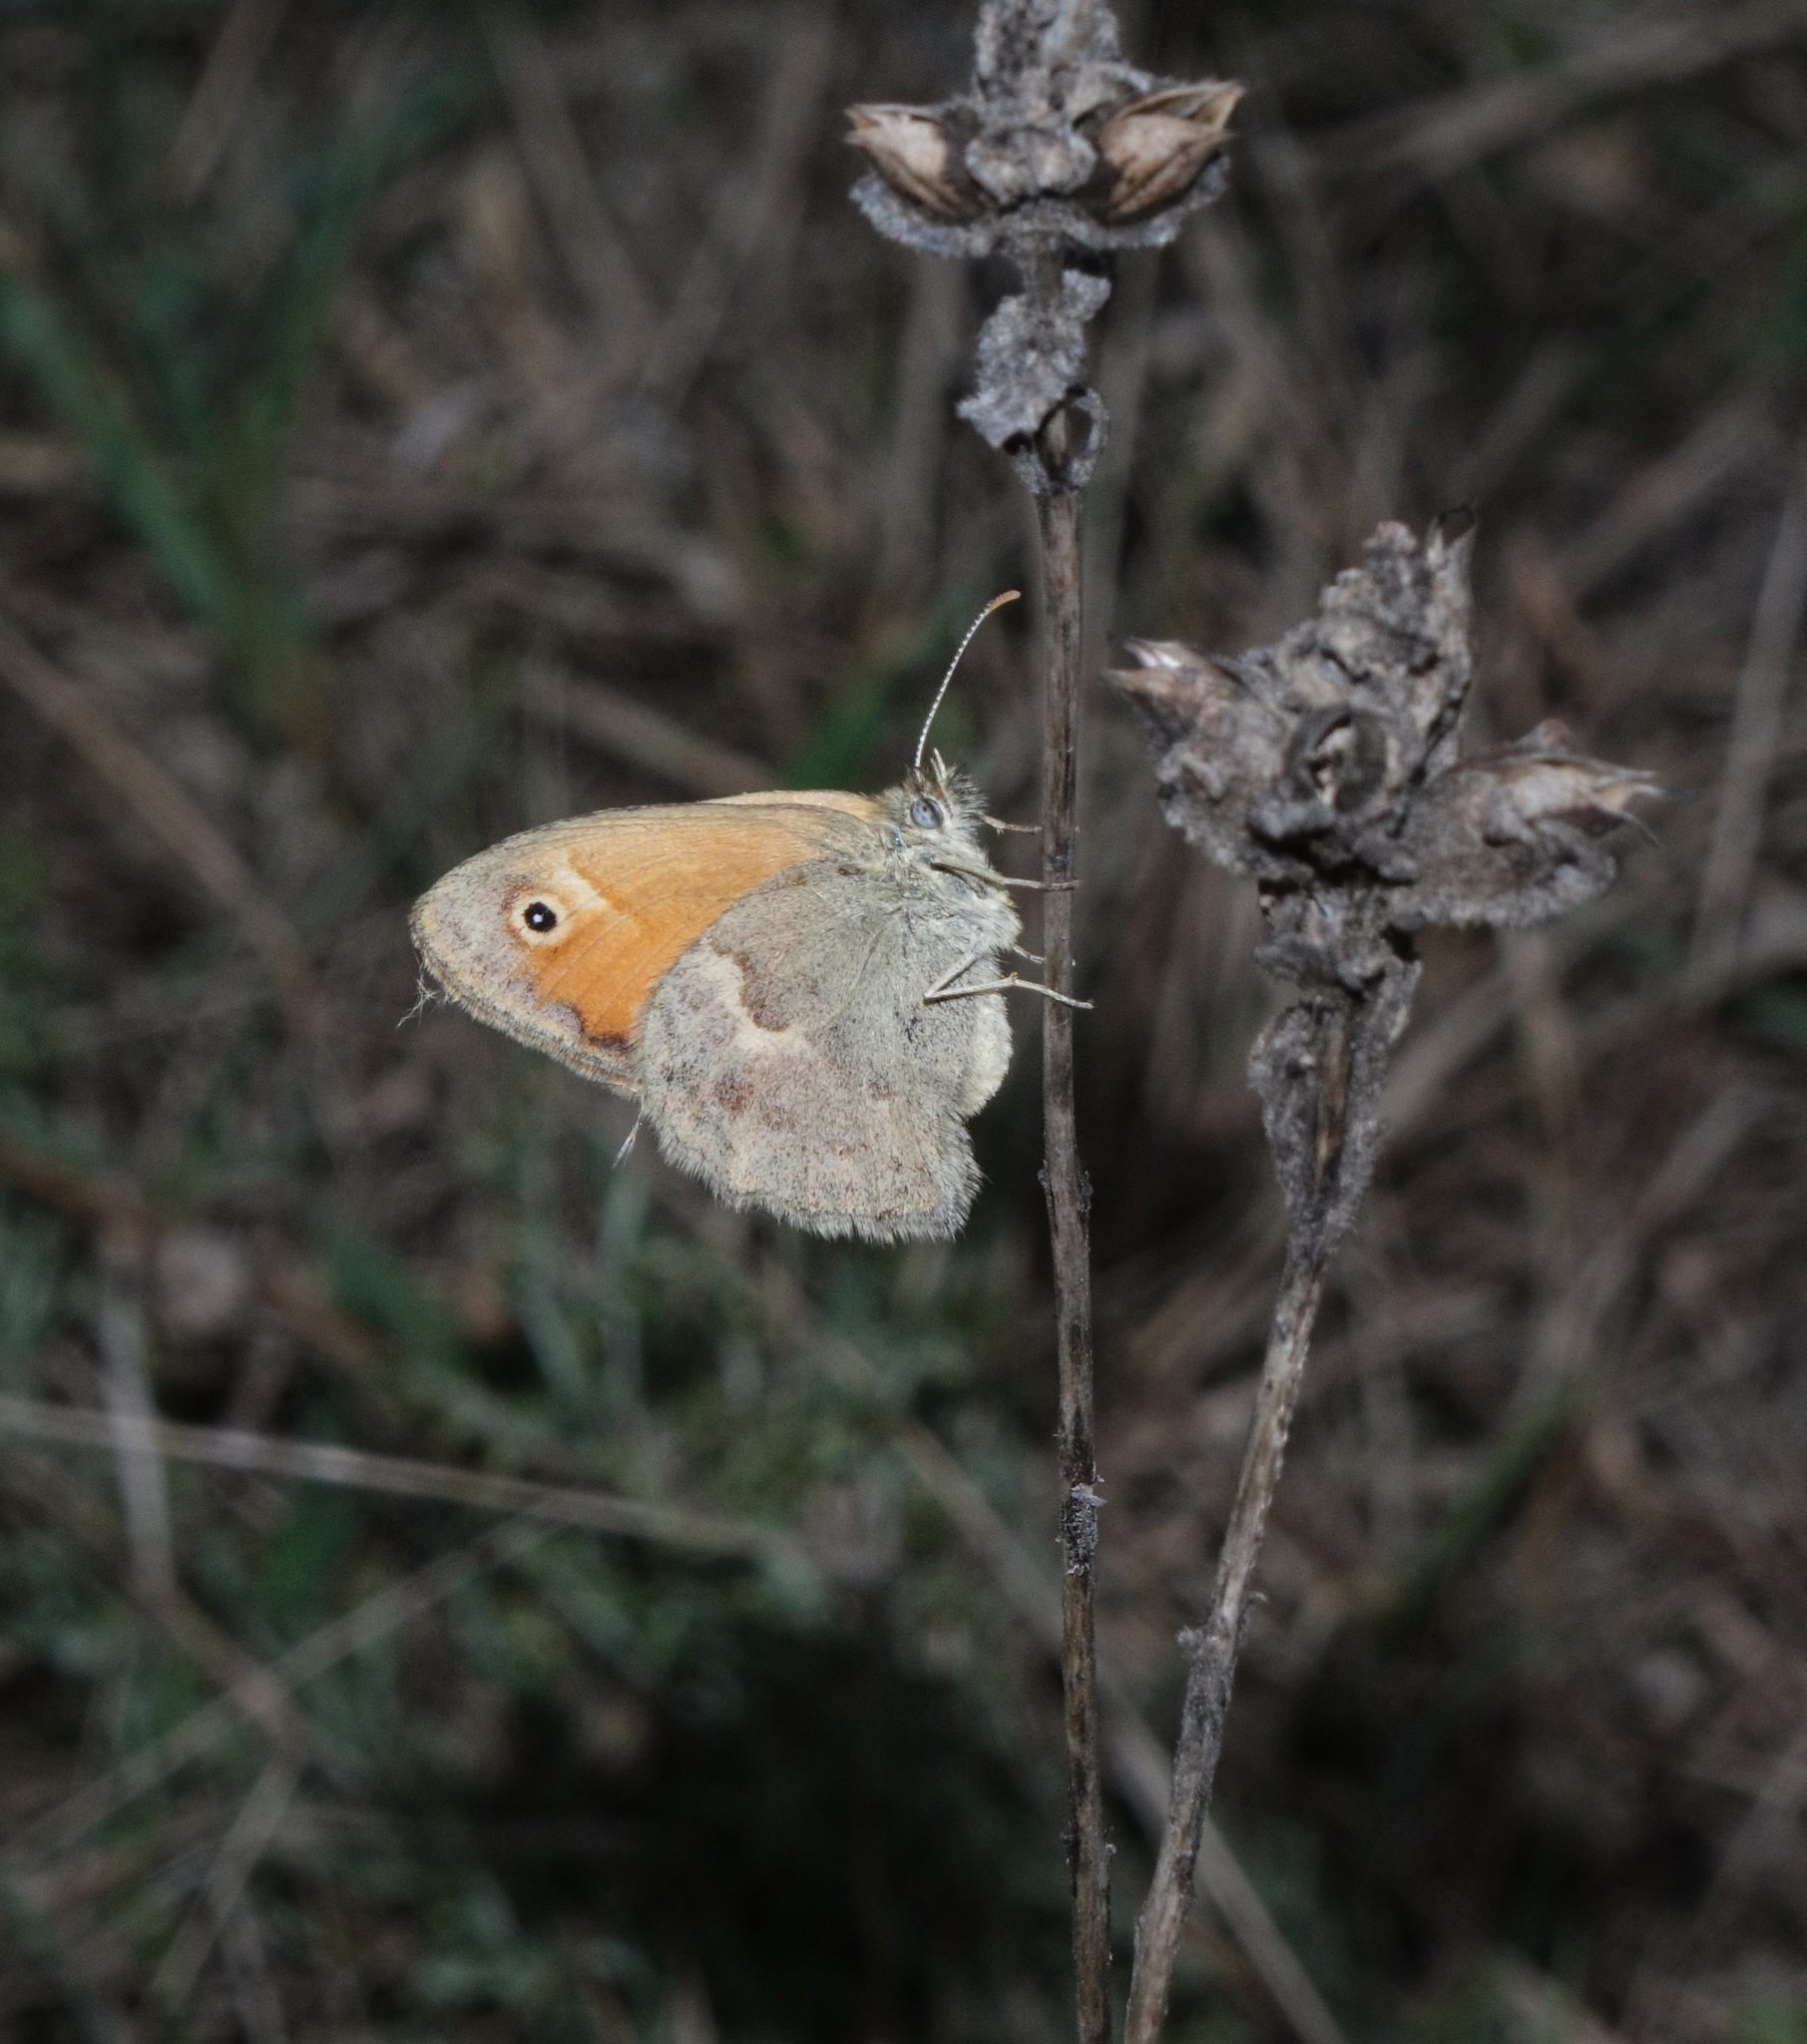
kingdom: Animalia
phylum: Arthropoda
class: Insecta
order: Lepidoptera
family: Nymphalidae
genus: Coenonympha
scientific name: Coenonympha pamphilus
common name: Small heath
